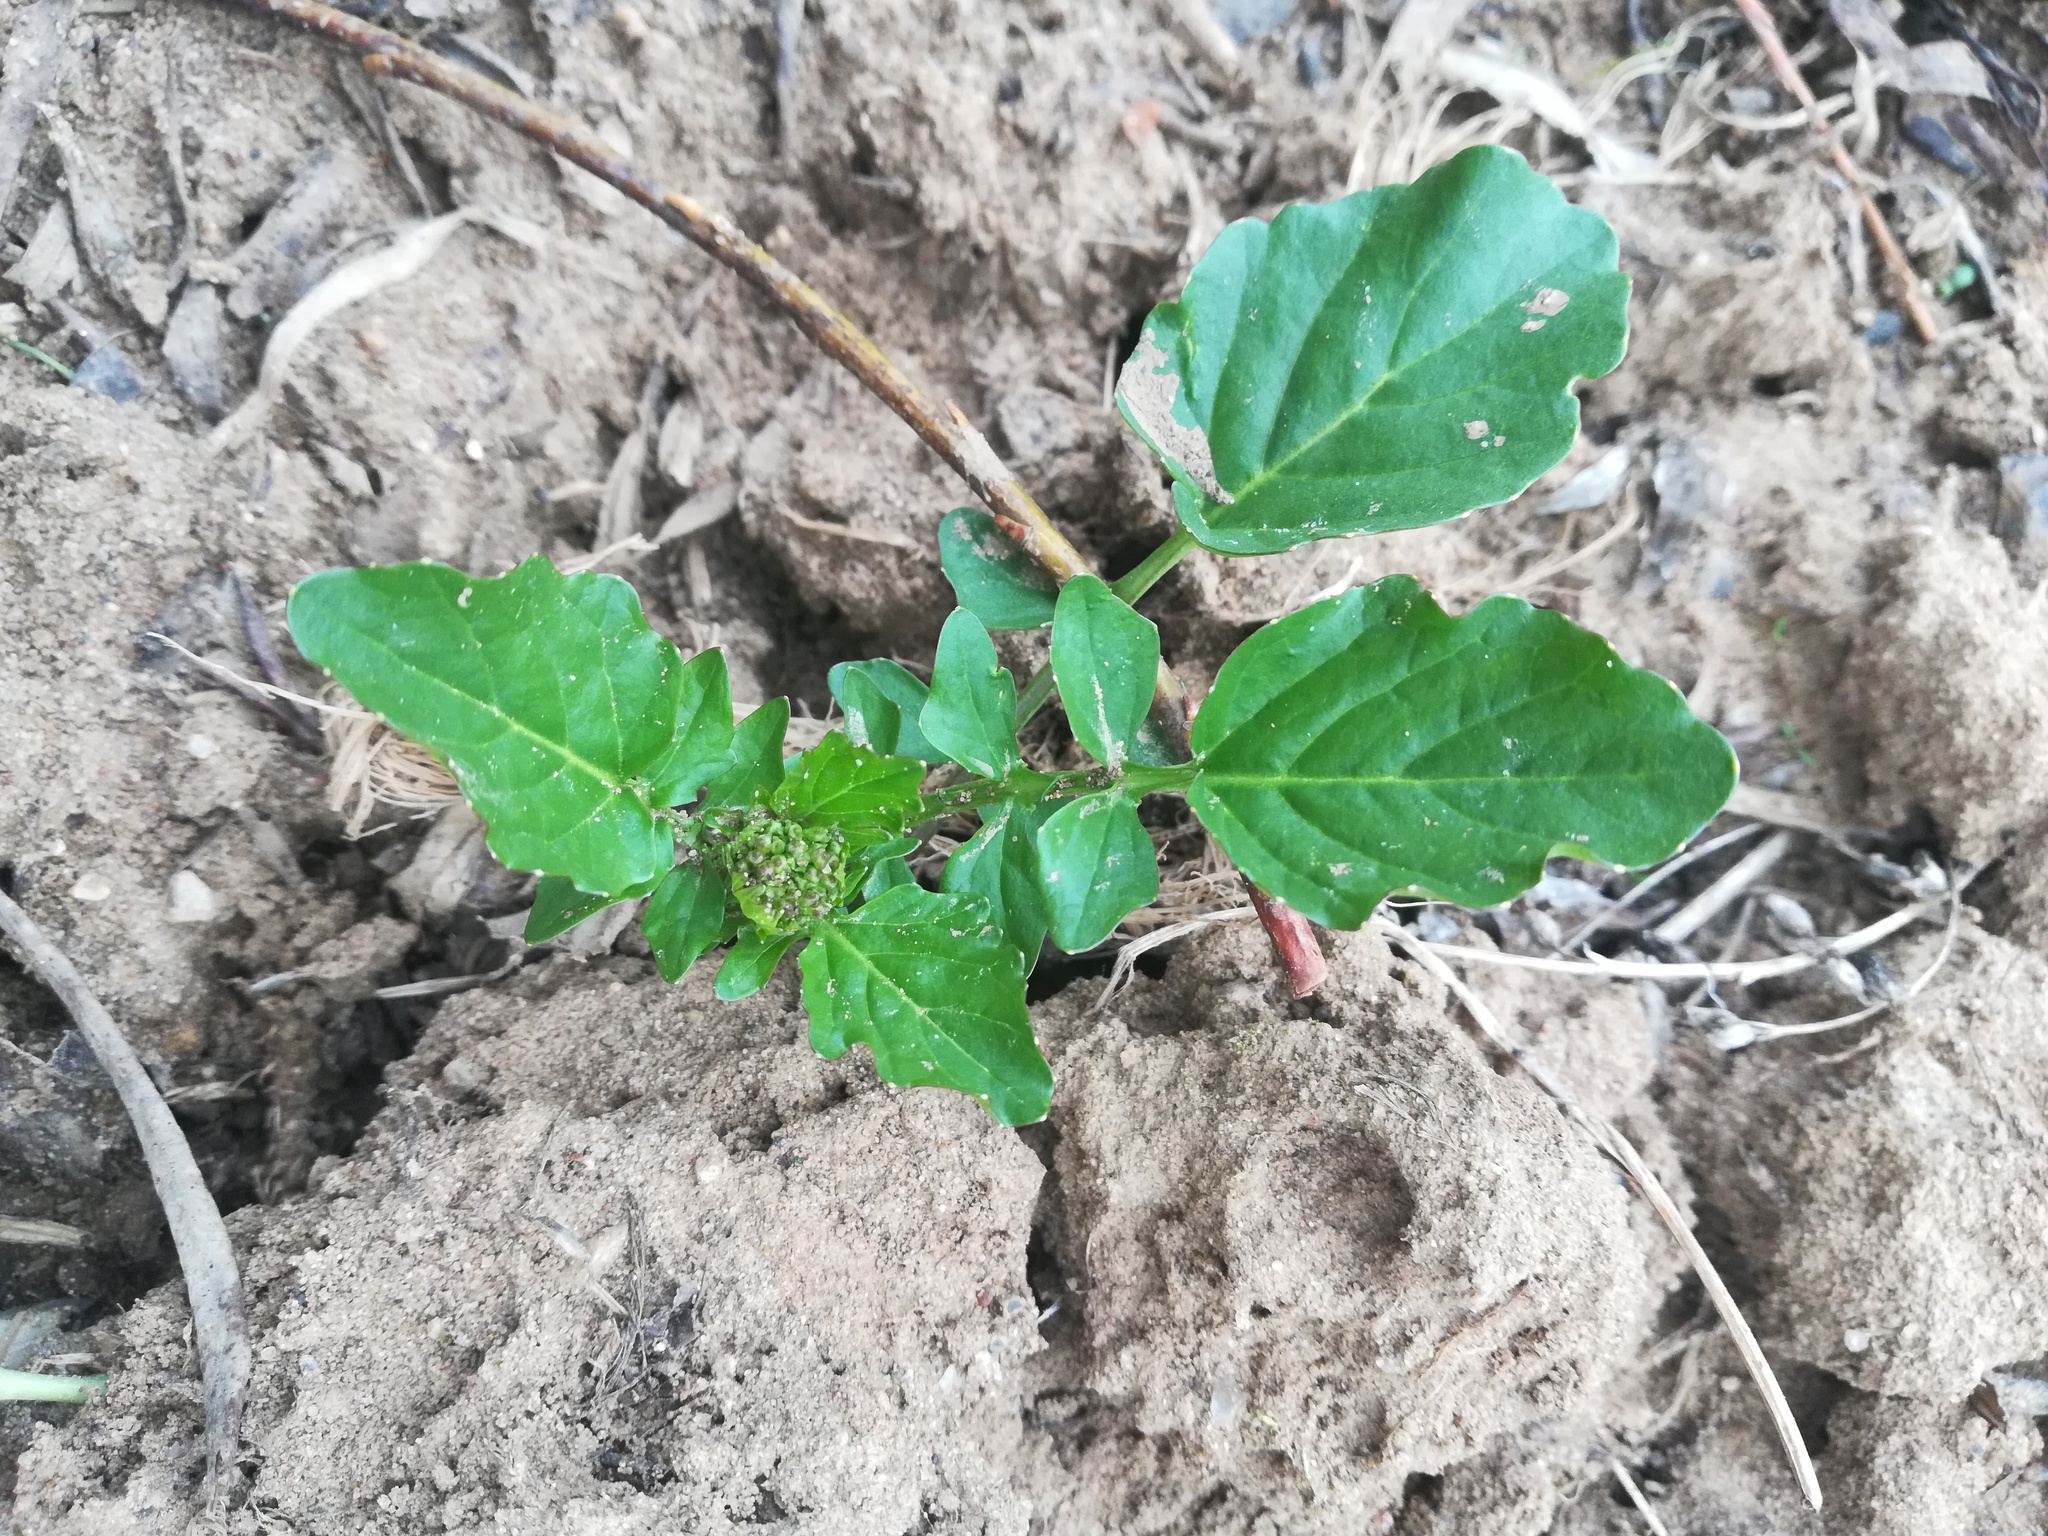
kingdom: Plantae
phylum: Tracheophyta
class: Magnoliopsida
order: Brassicales
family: Brassicaceae
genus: Barbarea
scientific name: Barbarea vulgaris
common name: Cressy-greens
